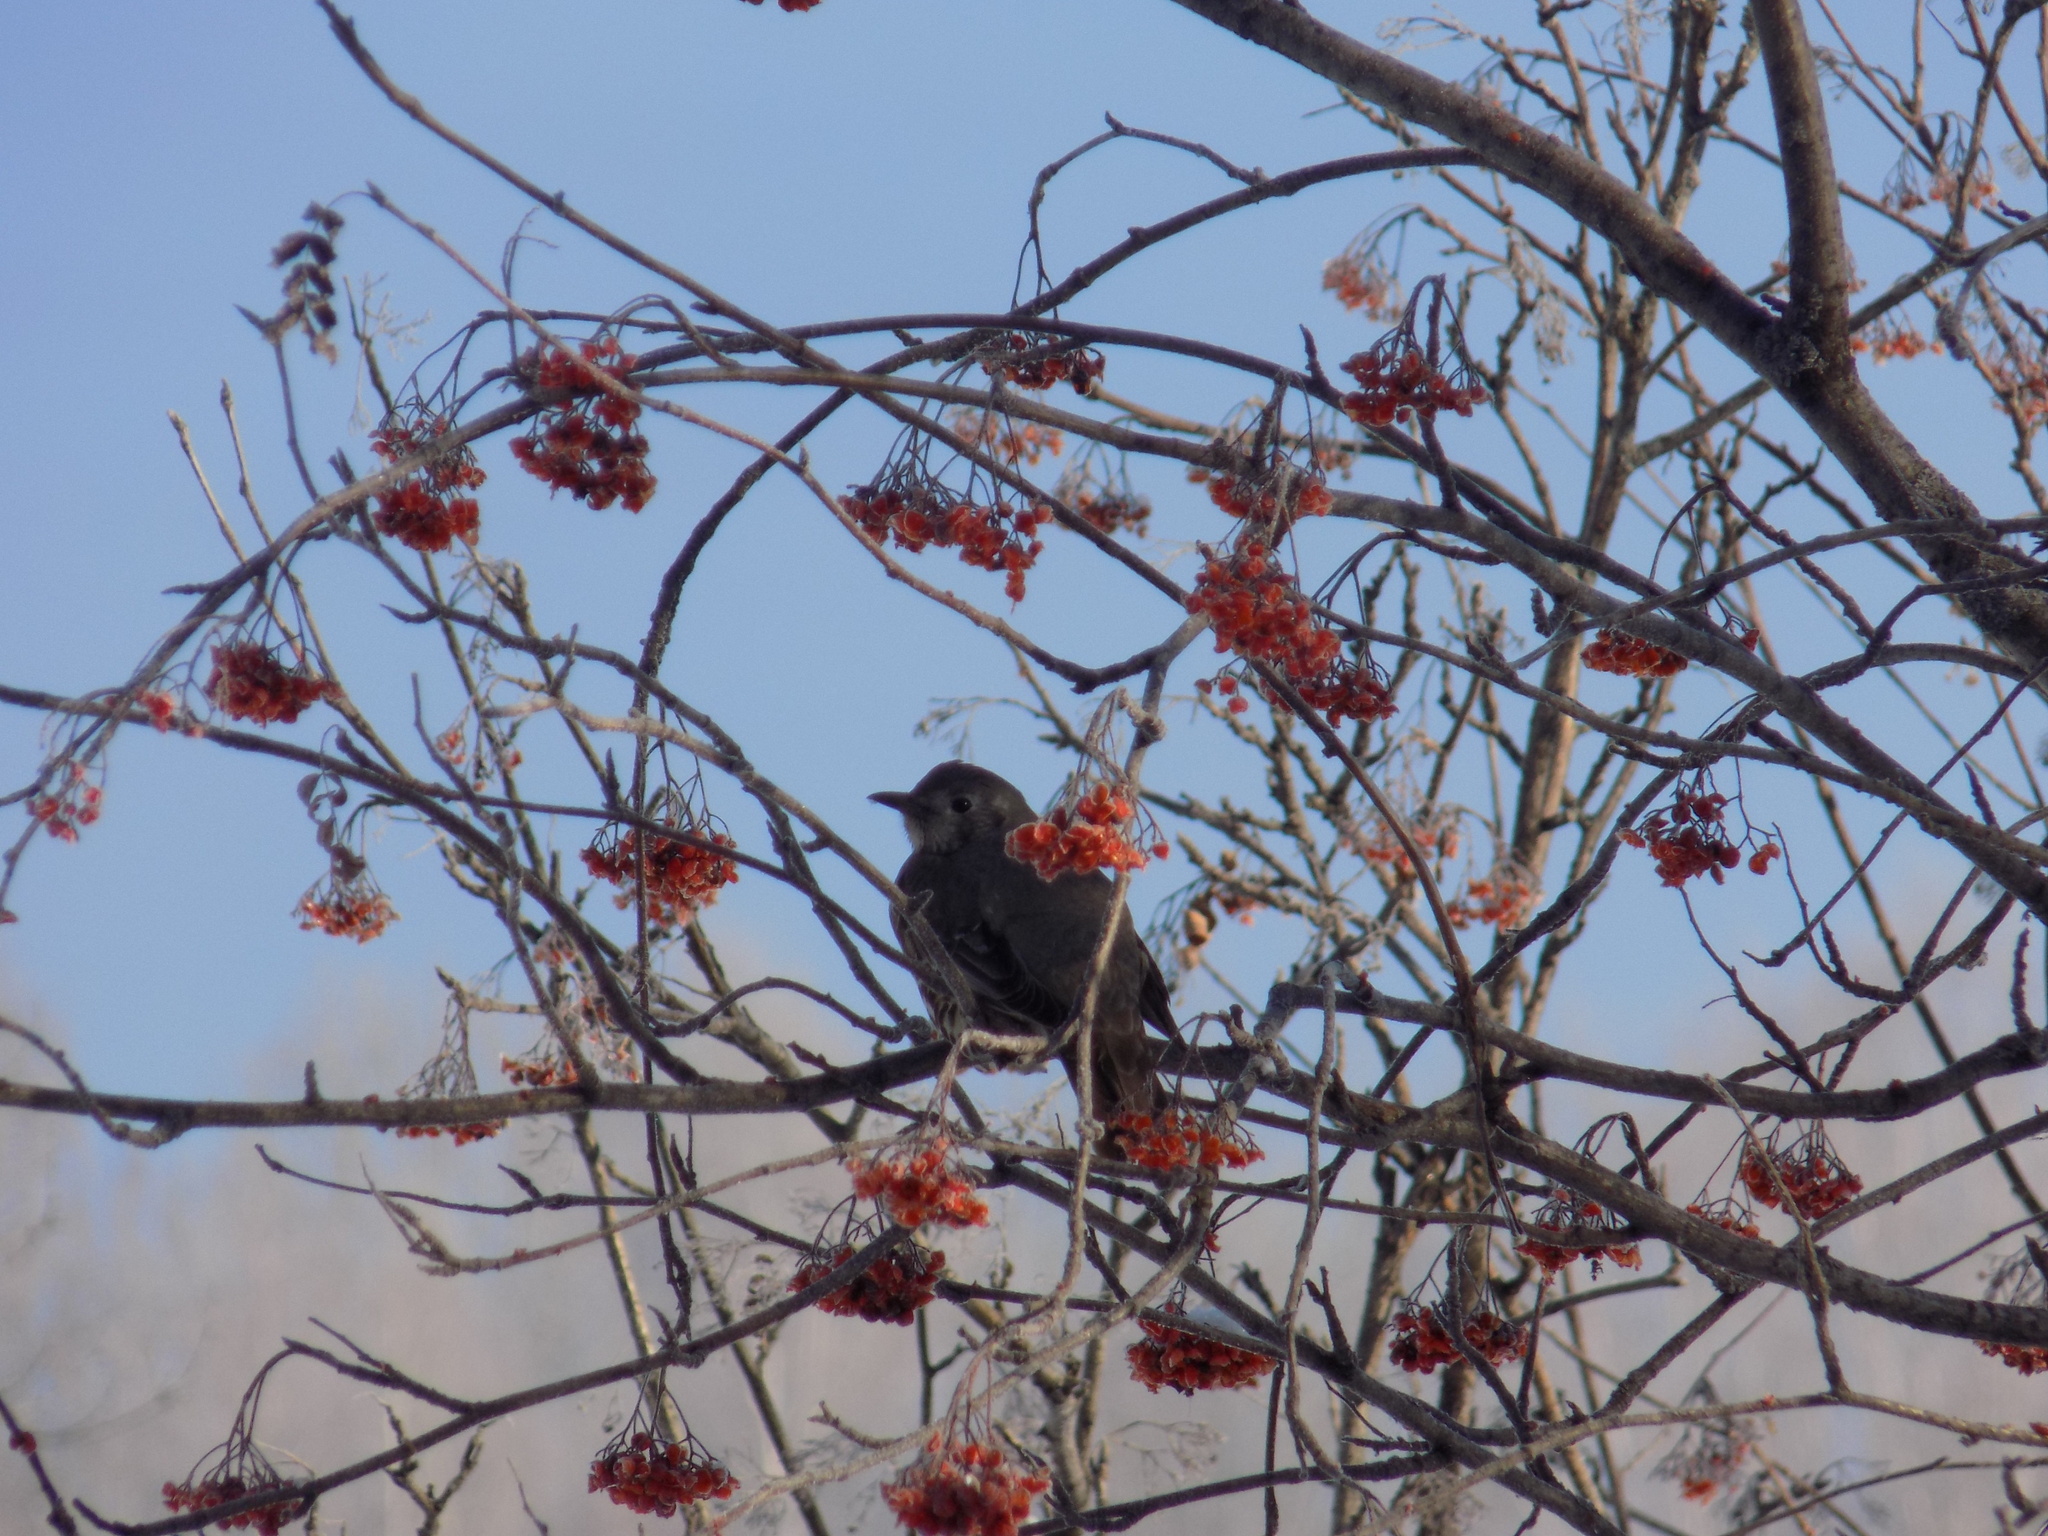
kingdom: Animalia
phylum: Chordata
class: Aves
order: Passeriformes
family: Turdidae
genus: Turdus
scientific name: Turdus viscivorus
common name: Mistle thrush
